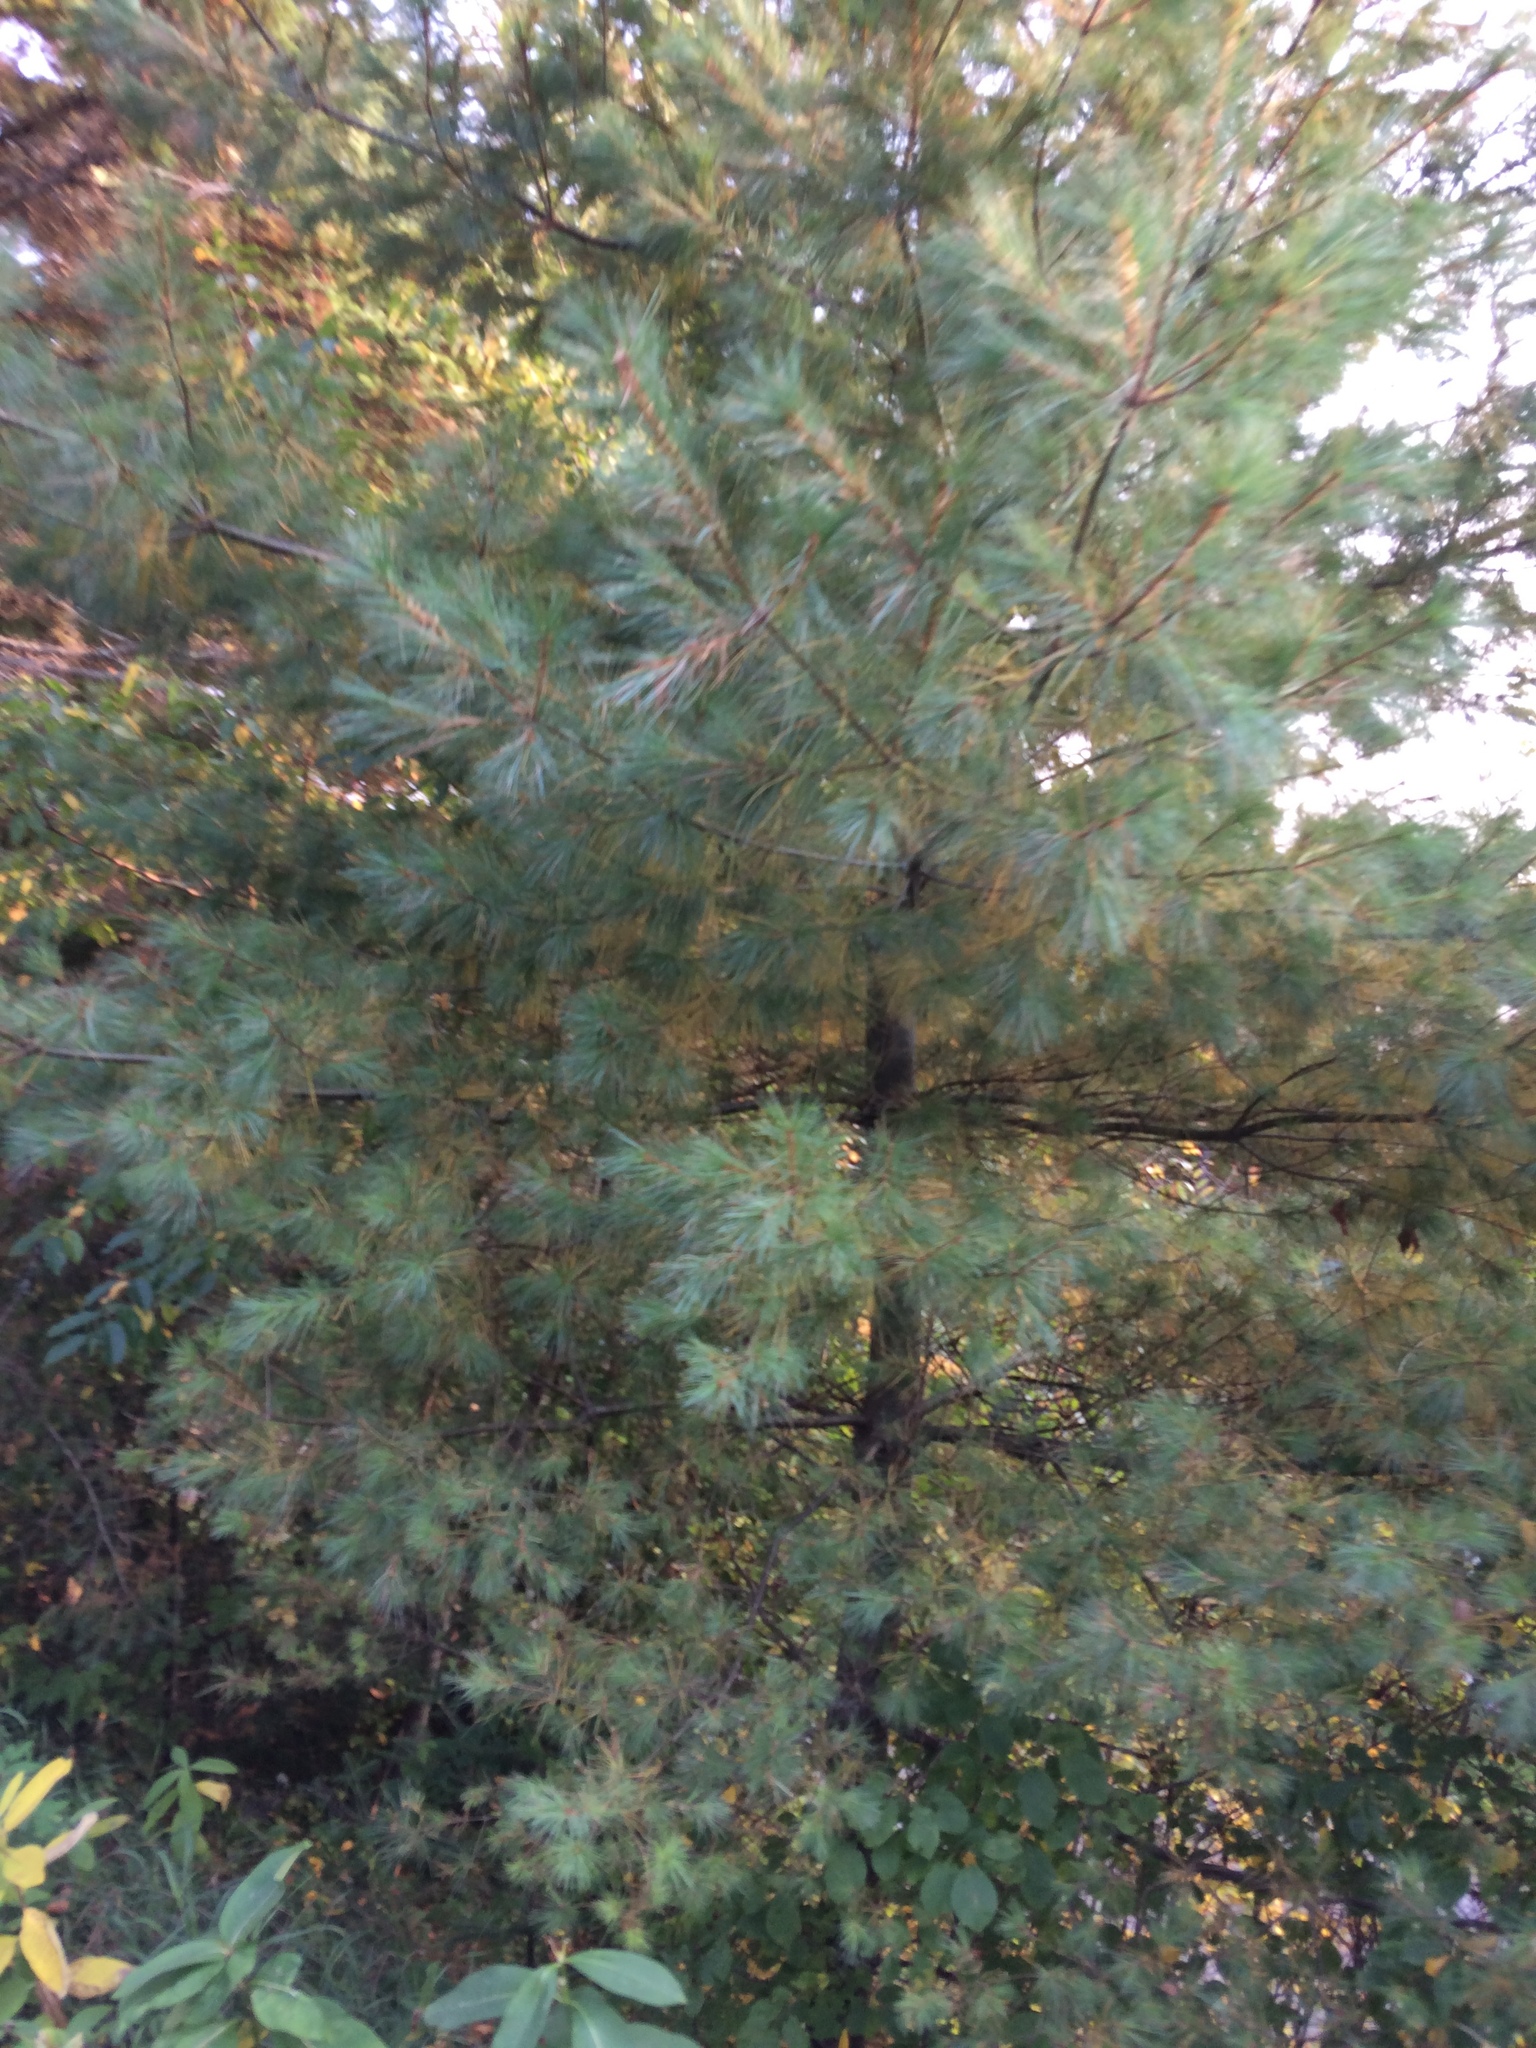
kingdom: Plantae
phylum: Tracheophyta
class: Pinopsida
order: Pinales
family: Pinaceae
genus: Pinus
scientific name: Pinus strobus
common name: Weymouth pine
